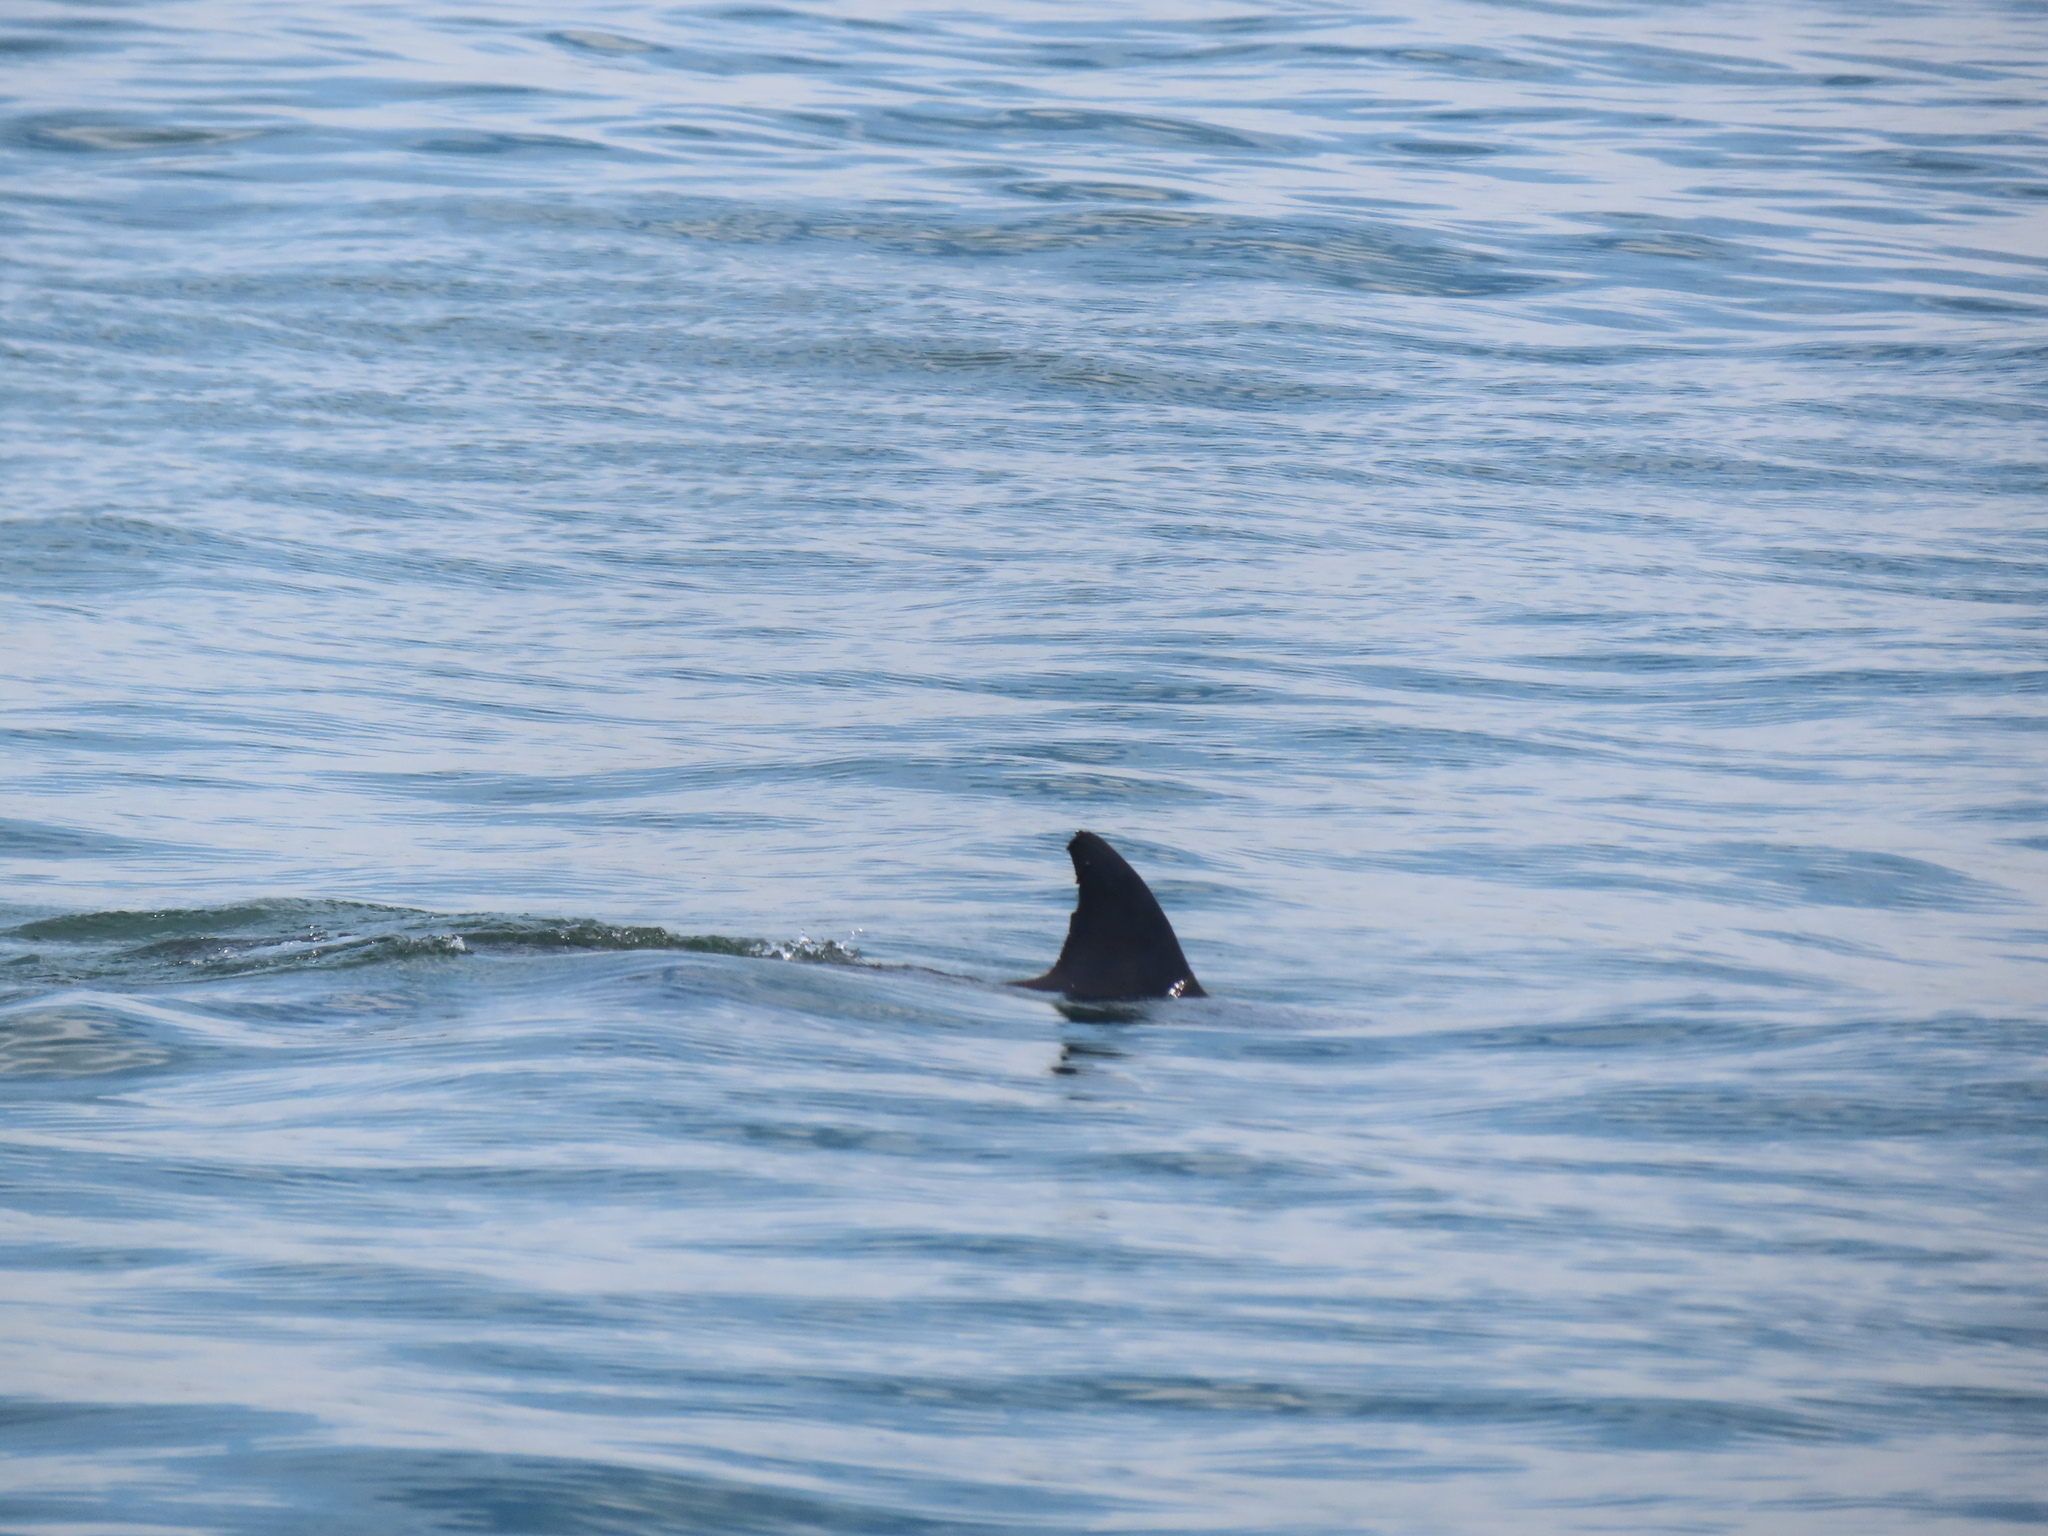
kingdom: Animalia
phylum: Chordata
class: Mammalia
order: Cetacea
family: Delphinidae
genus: Tursiops
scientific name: Tursiops truncatus
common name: Bottlenose dolphin
